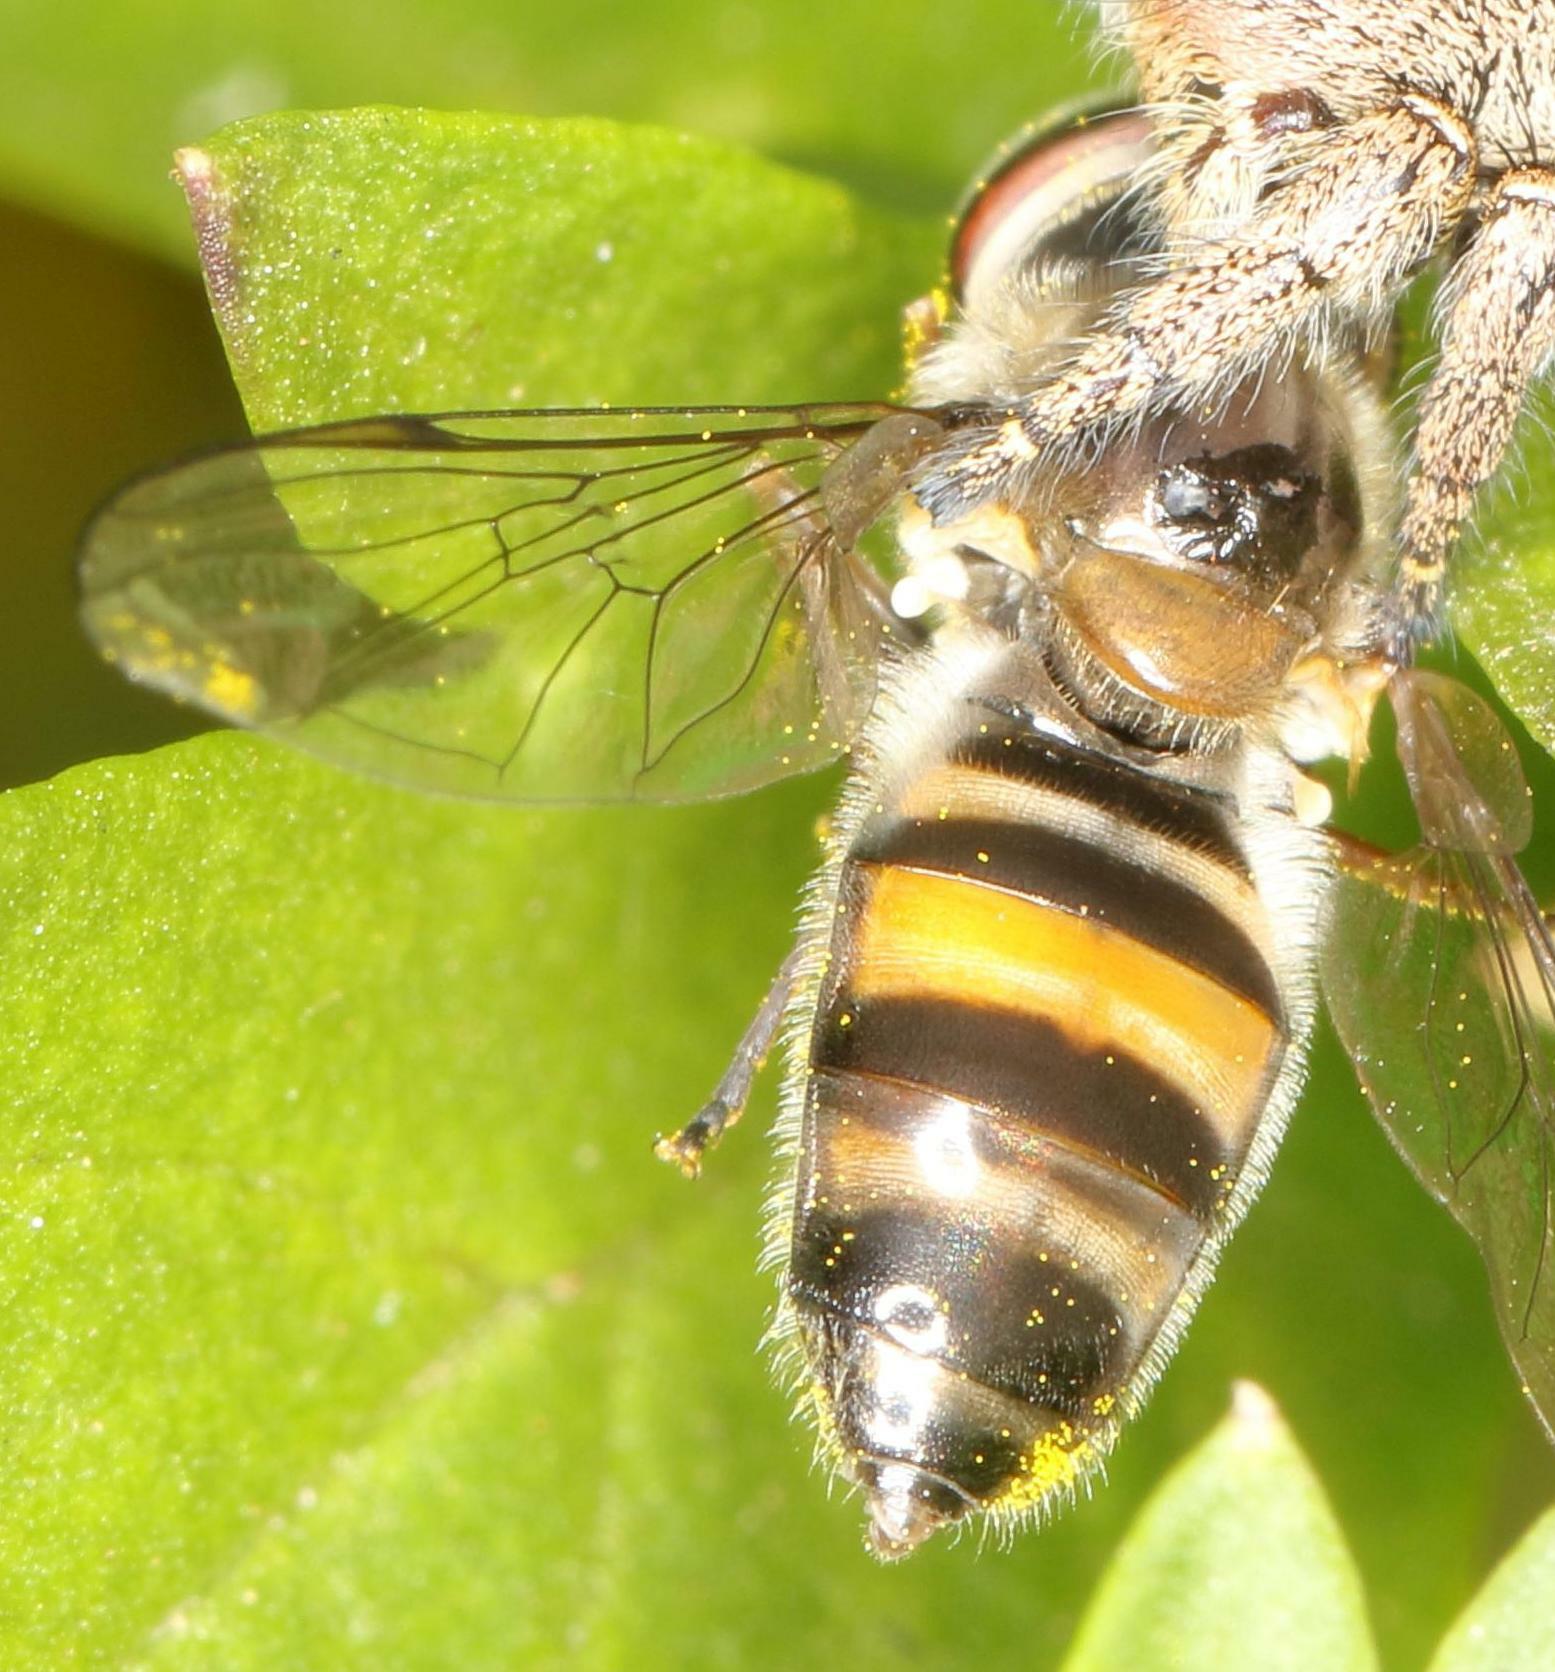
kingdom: Animalia
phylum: Arthropoda
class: Insecta
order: Diptera
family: Syrphidae
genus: Betasyrphus
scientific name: Betasyrphus adligatus
